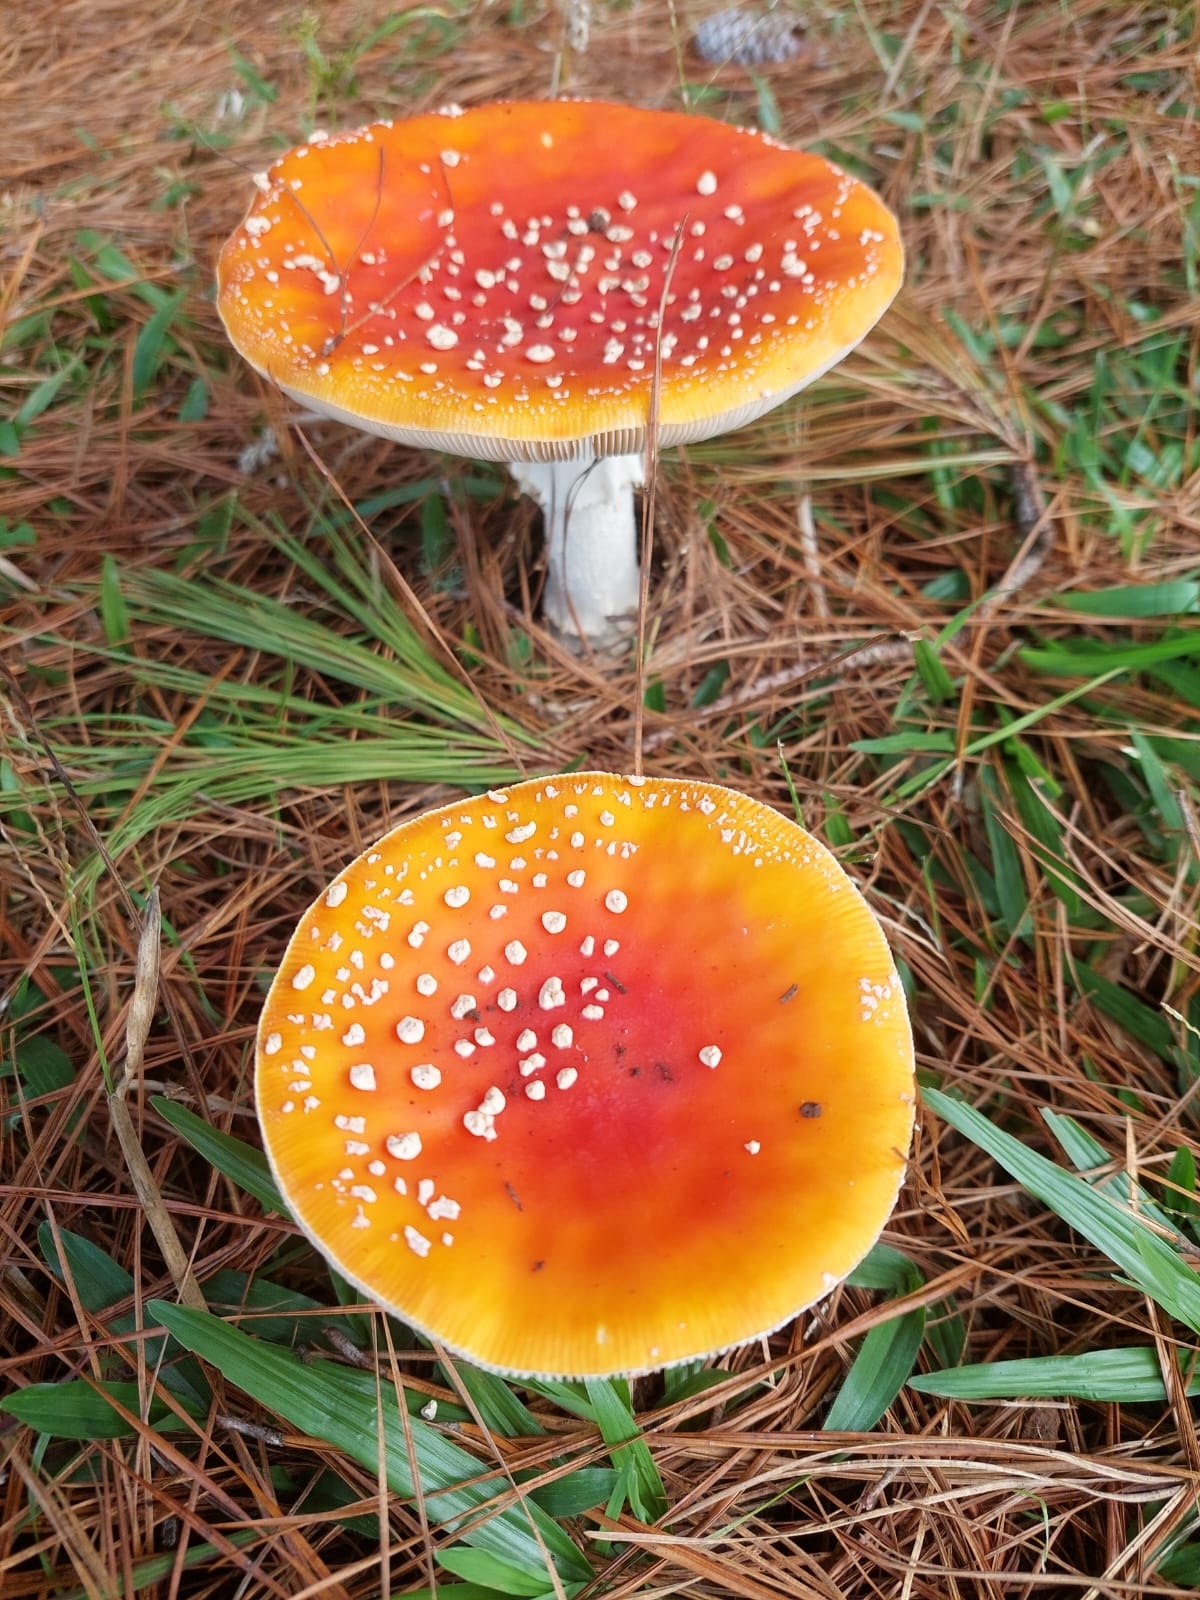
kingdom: Fungi
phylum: Basidiomycota
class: Agaricomycetes
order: Agaricales
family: Amanitaceae
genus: Amanita
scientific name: Amanita muscaria
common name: Fly agaric
